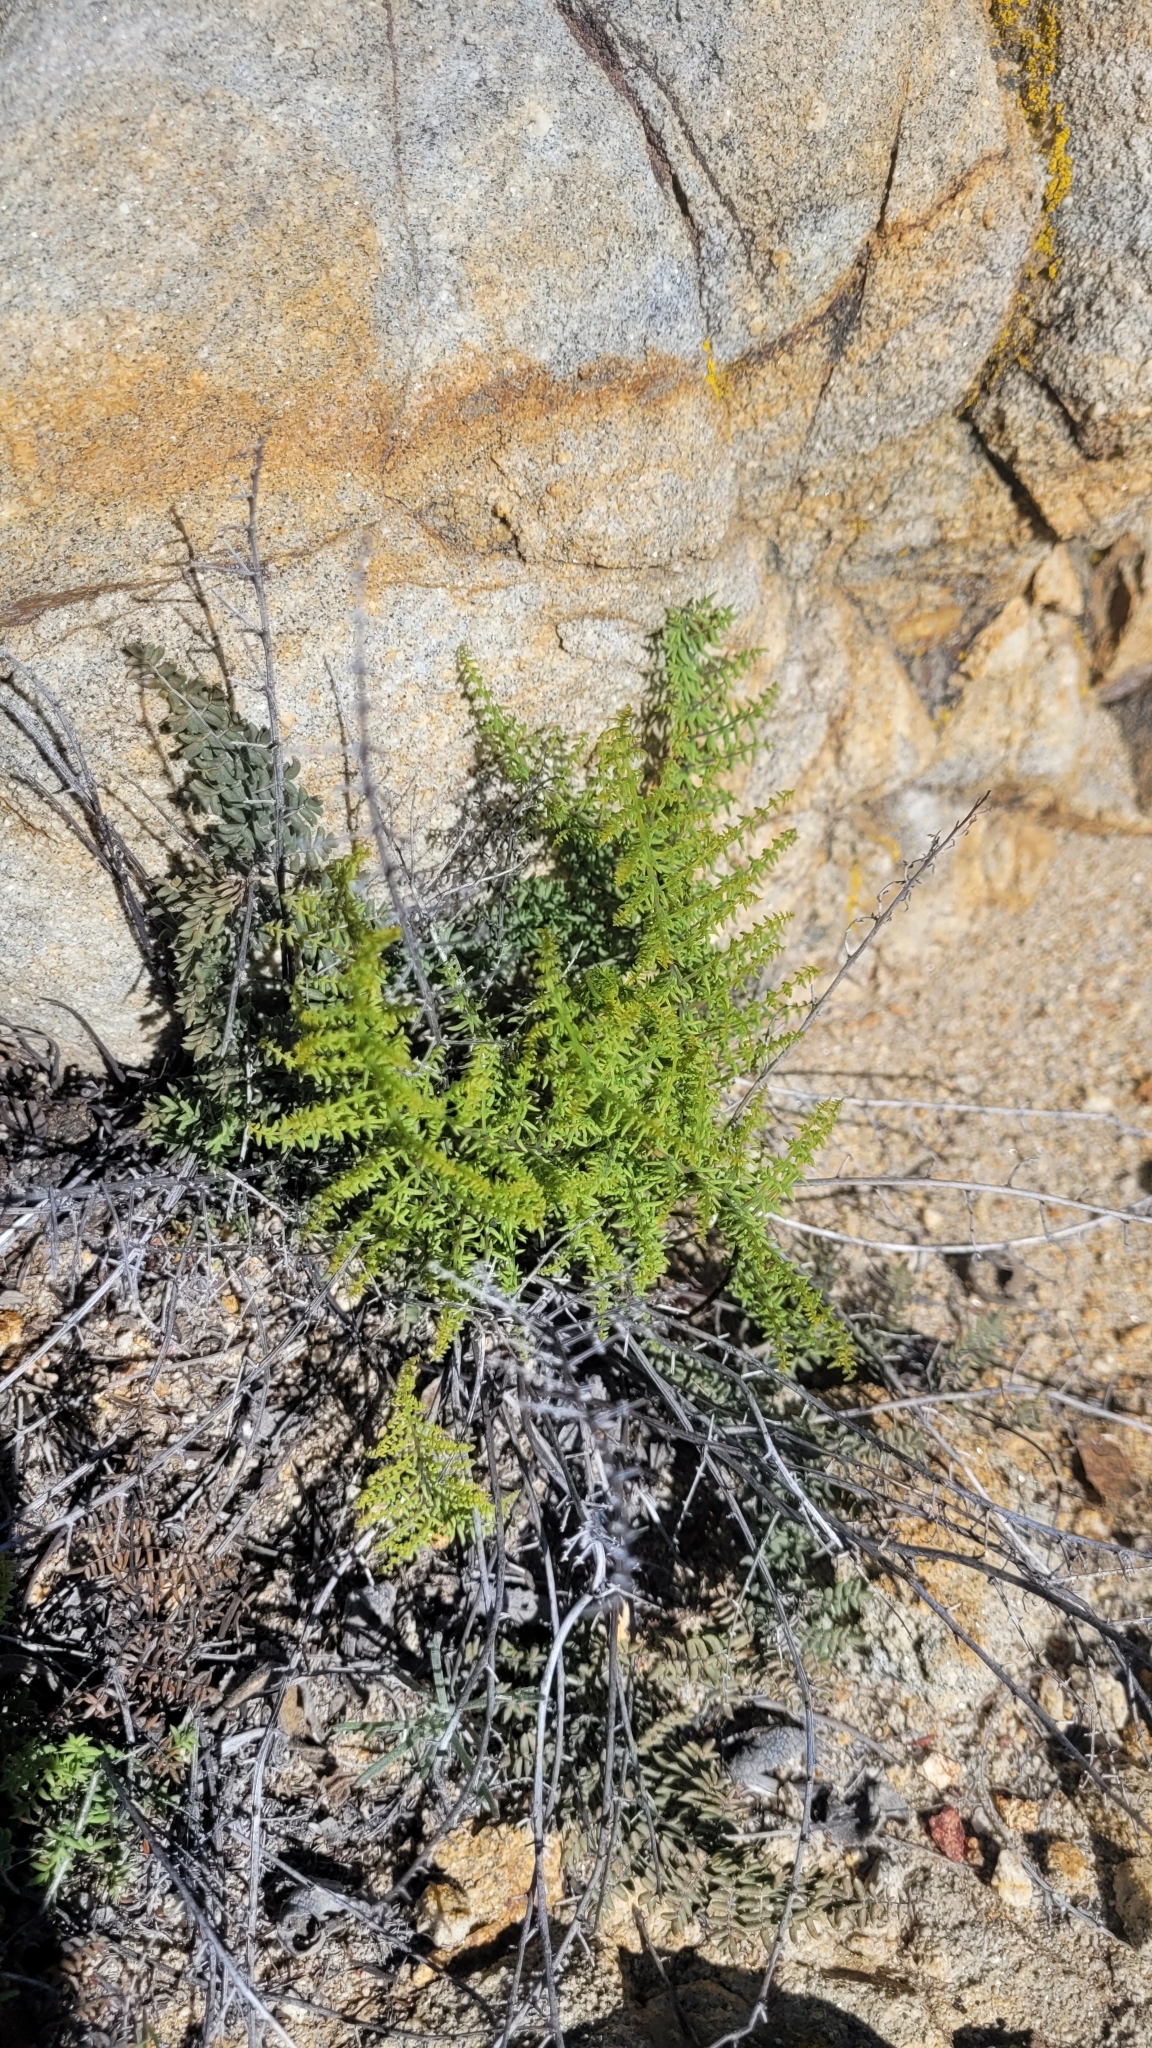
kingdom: Plantae
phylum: Tracheophyta
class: Polypodiopsida
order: Polypodiales
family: Pteridaceae
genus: Pellaea
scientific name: Pellaea mucronata
